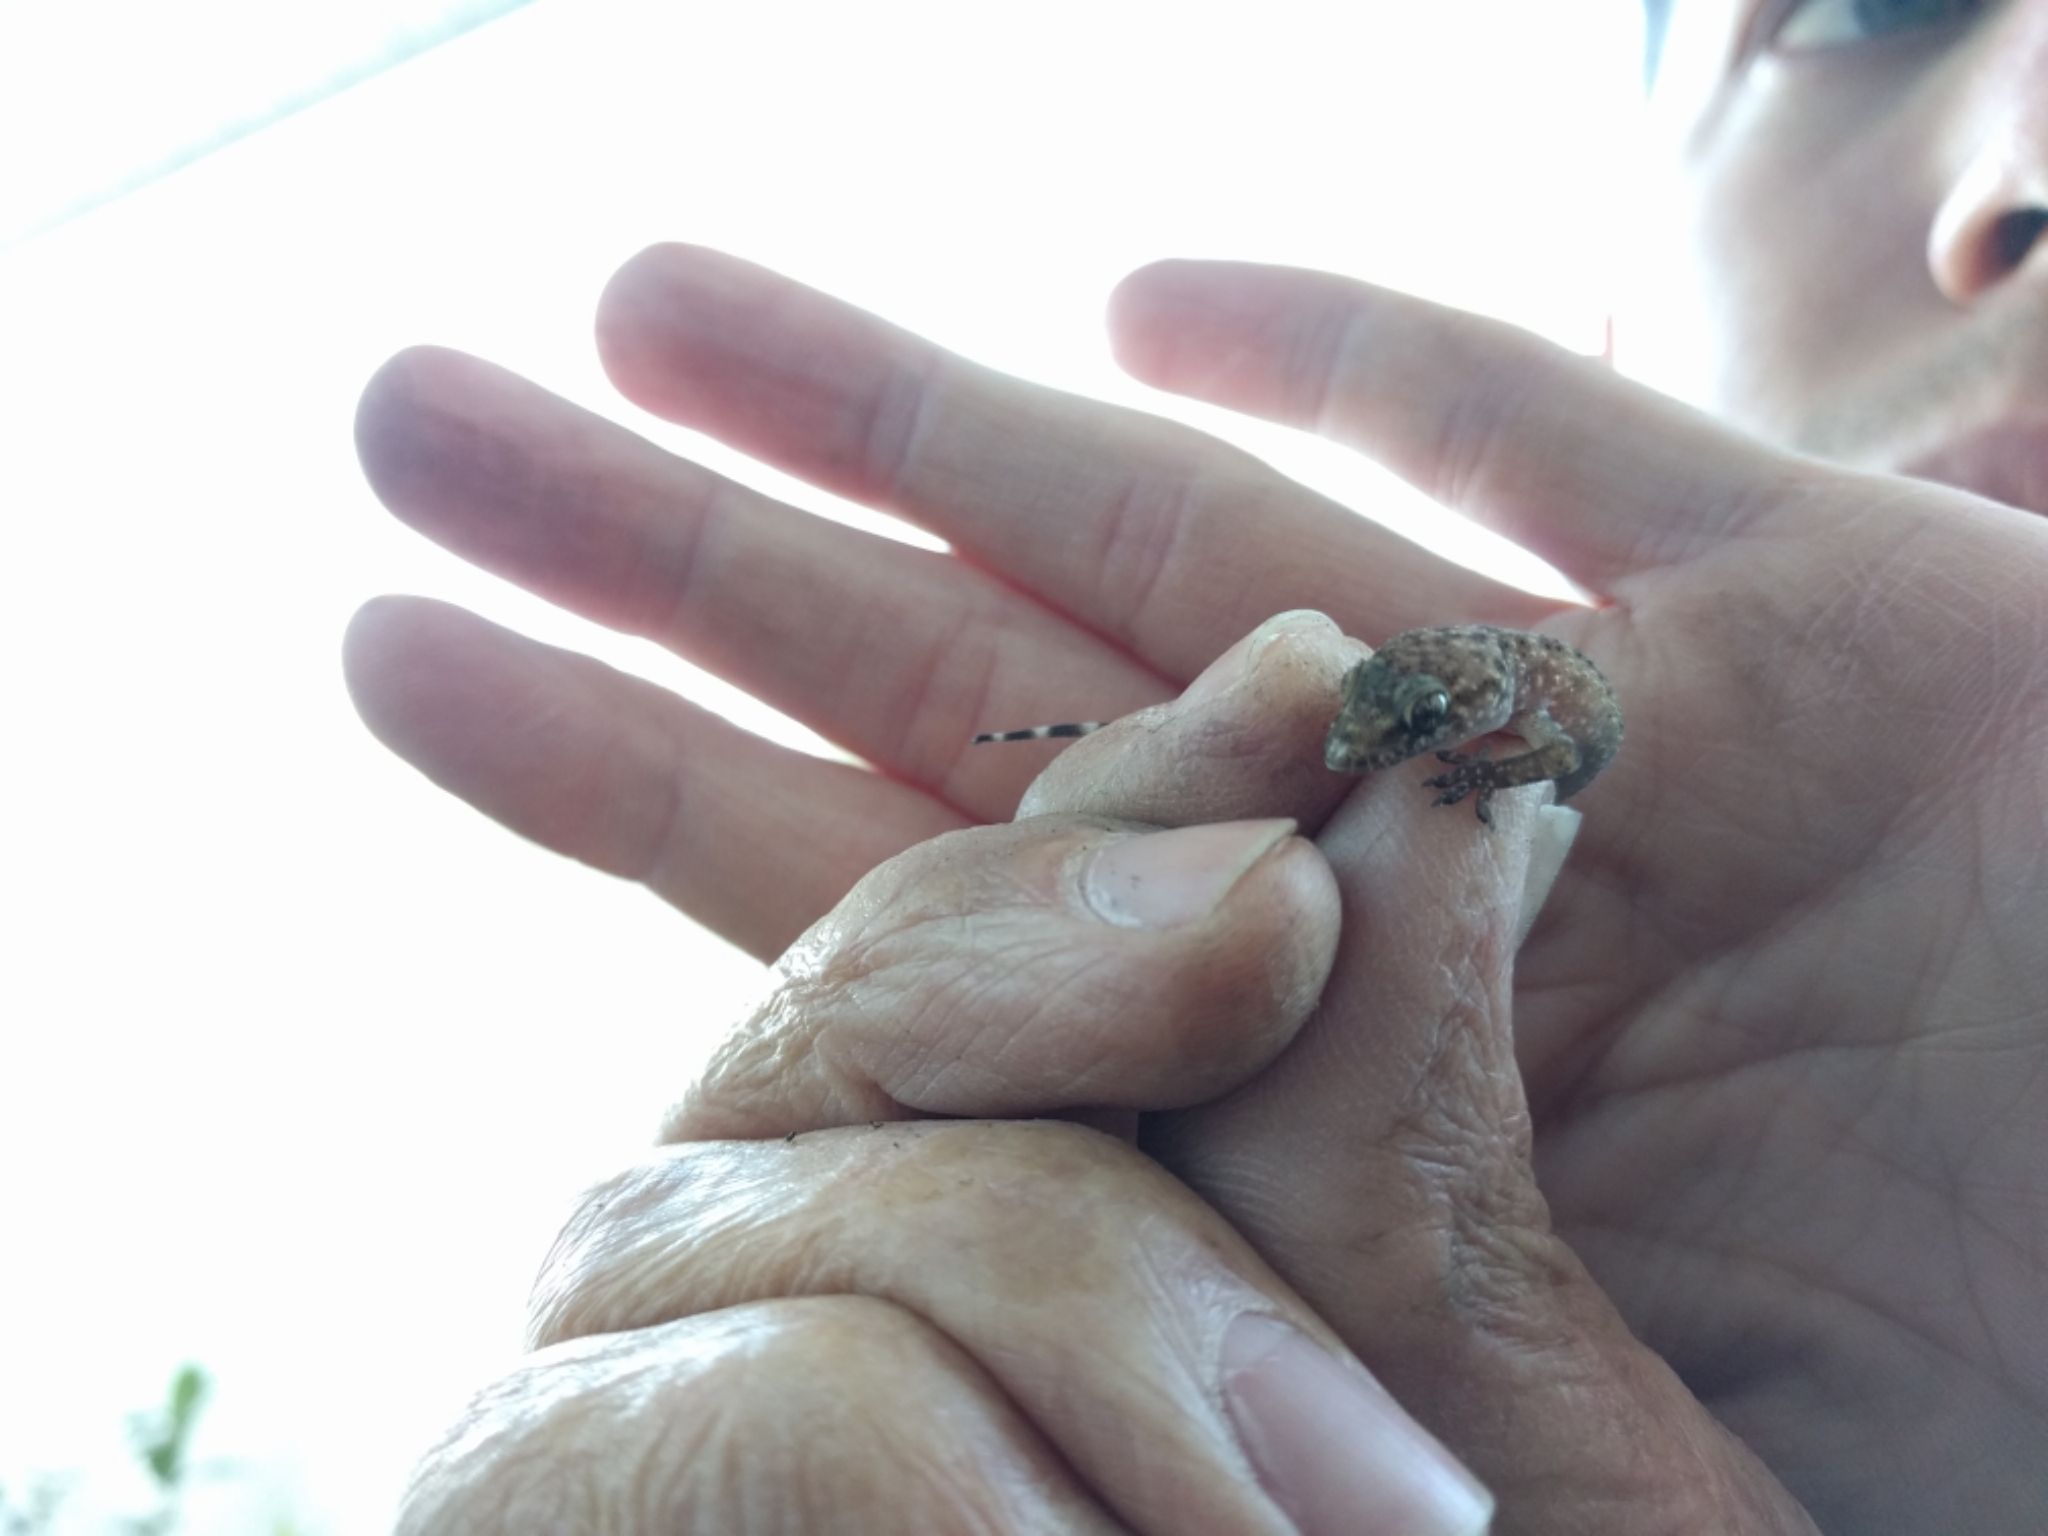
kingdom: Animalia
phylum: Chordata
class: Squamata
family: Gekkonidae
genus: Hemidactylus
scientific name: Hemidactylus turcicus
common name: Turkish gecko
